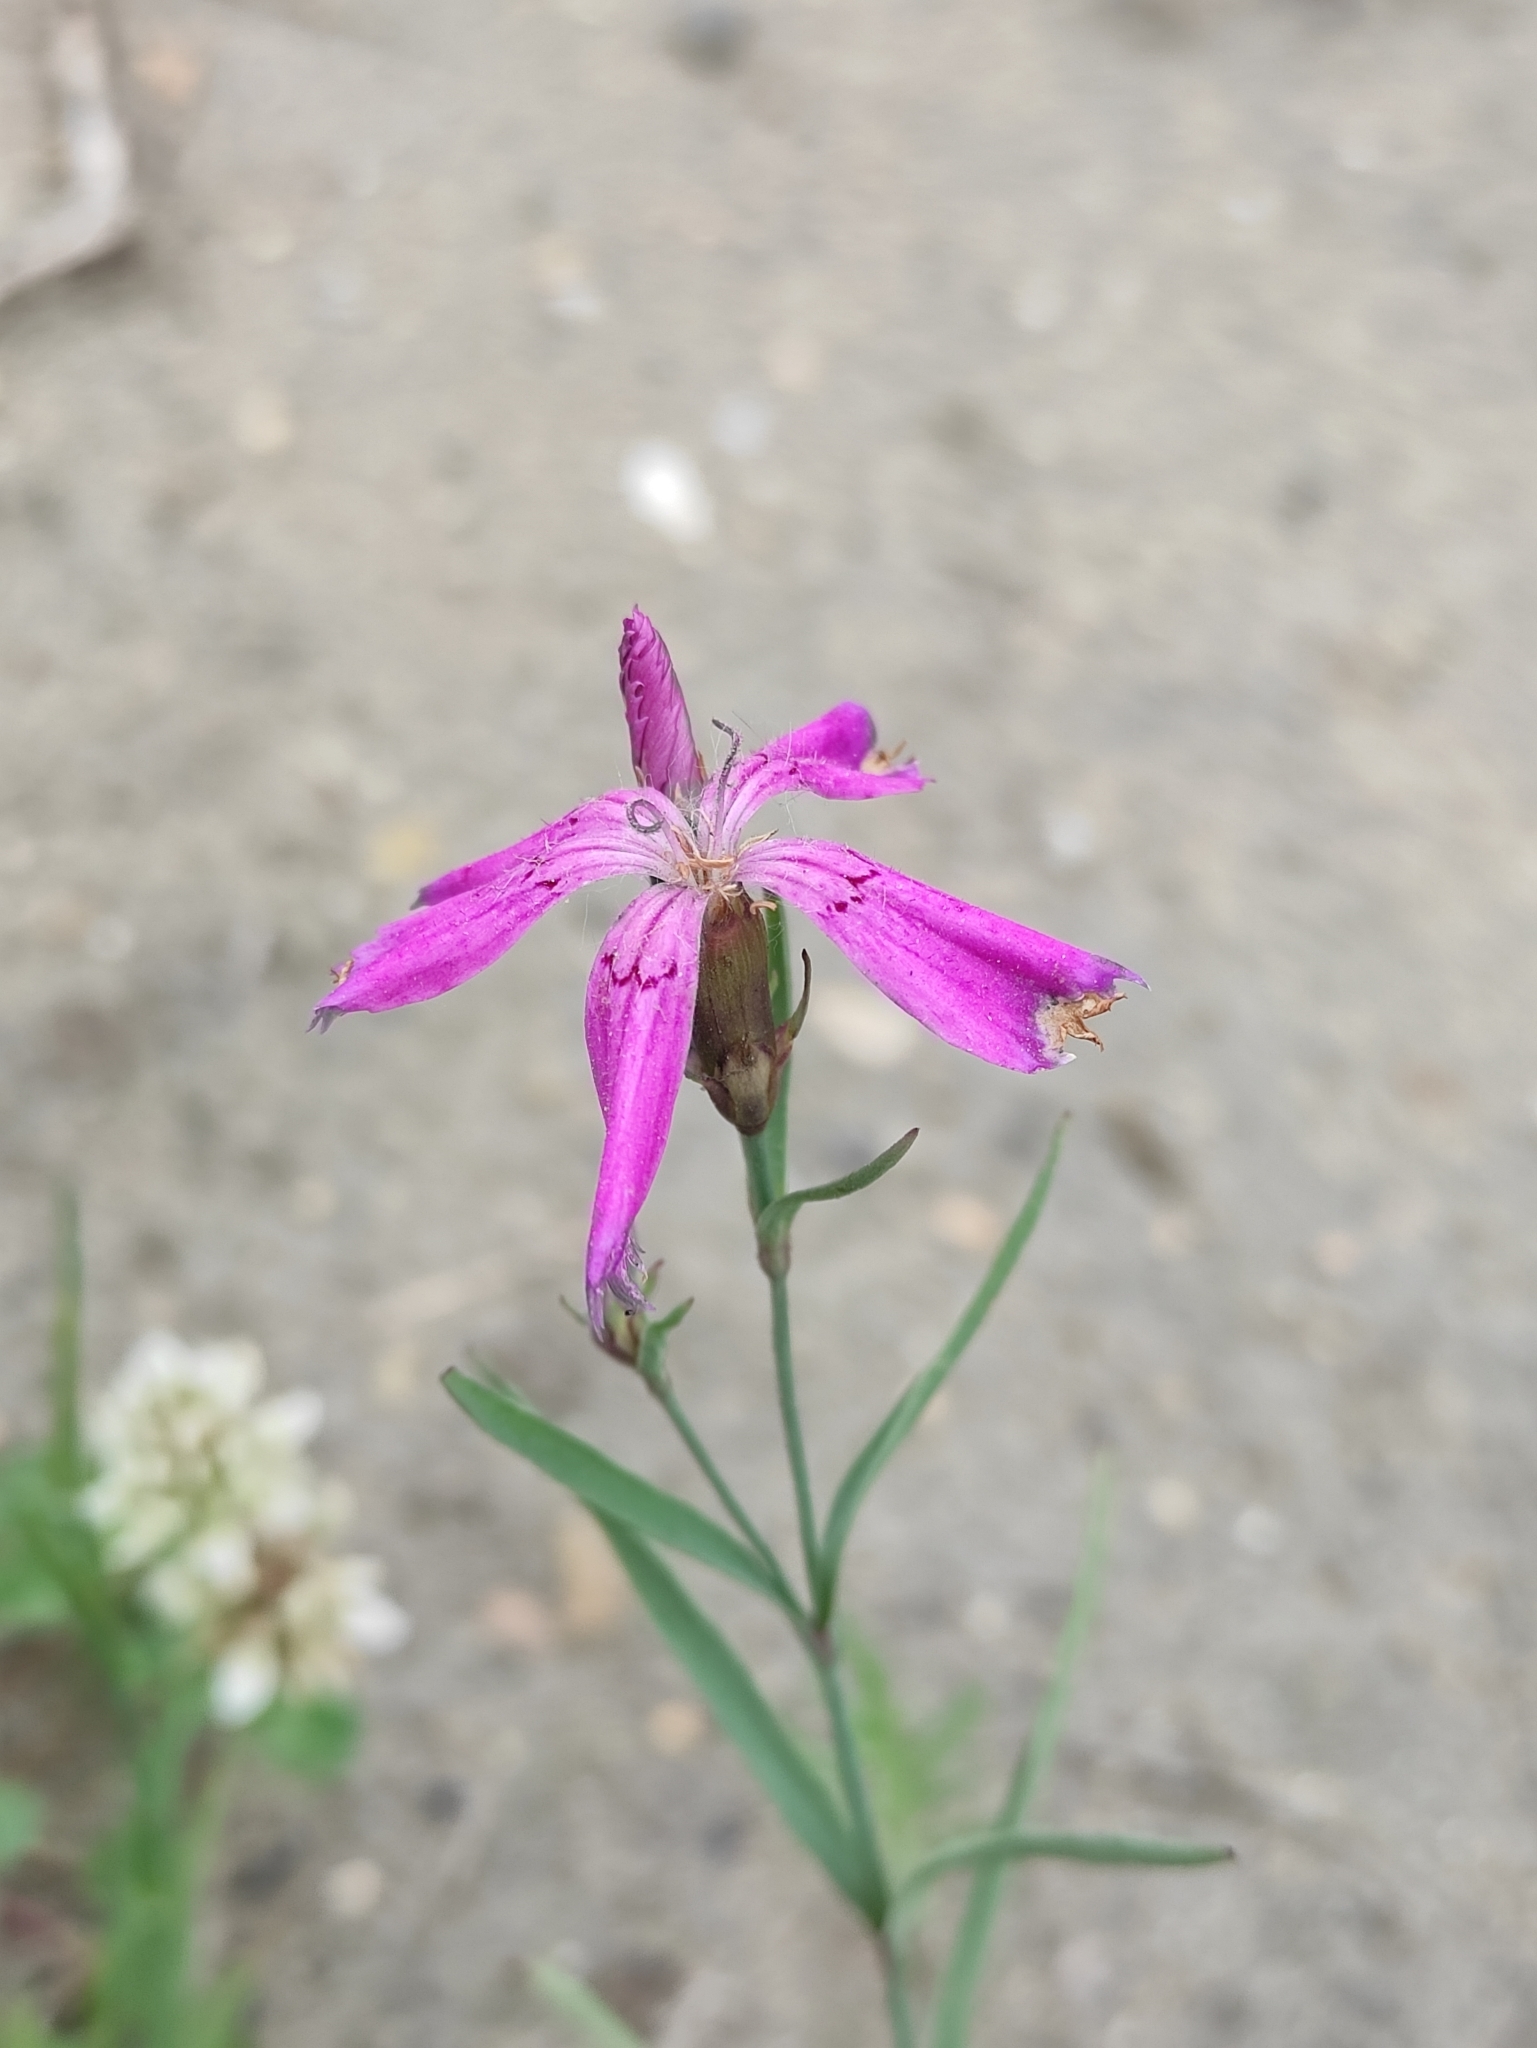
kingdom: Plantae
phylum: Tracheophyta
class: Magnoliopsida
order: Caryophyllales
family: Caryophyllaceae
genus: Dianthus
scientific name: Dianthus chinensis
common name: Rainbow pink
